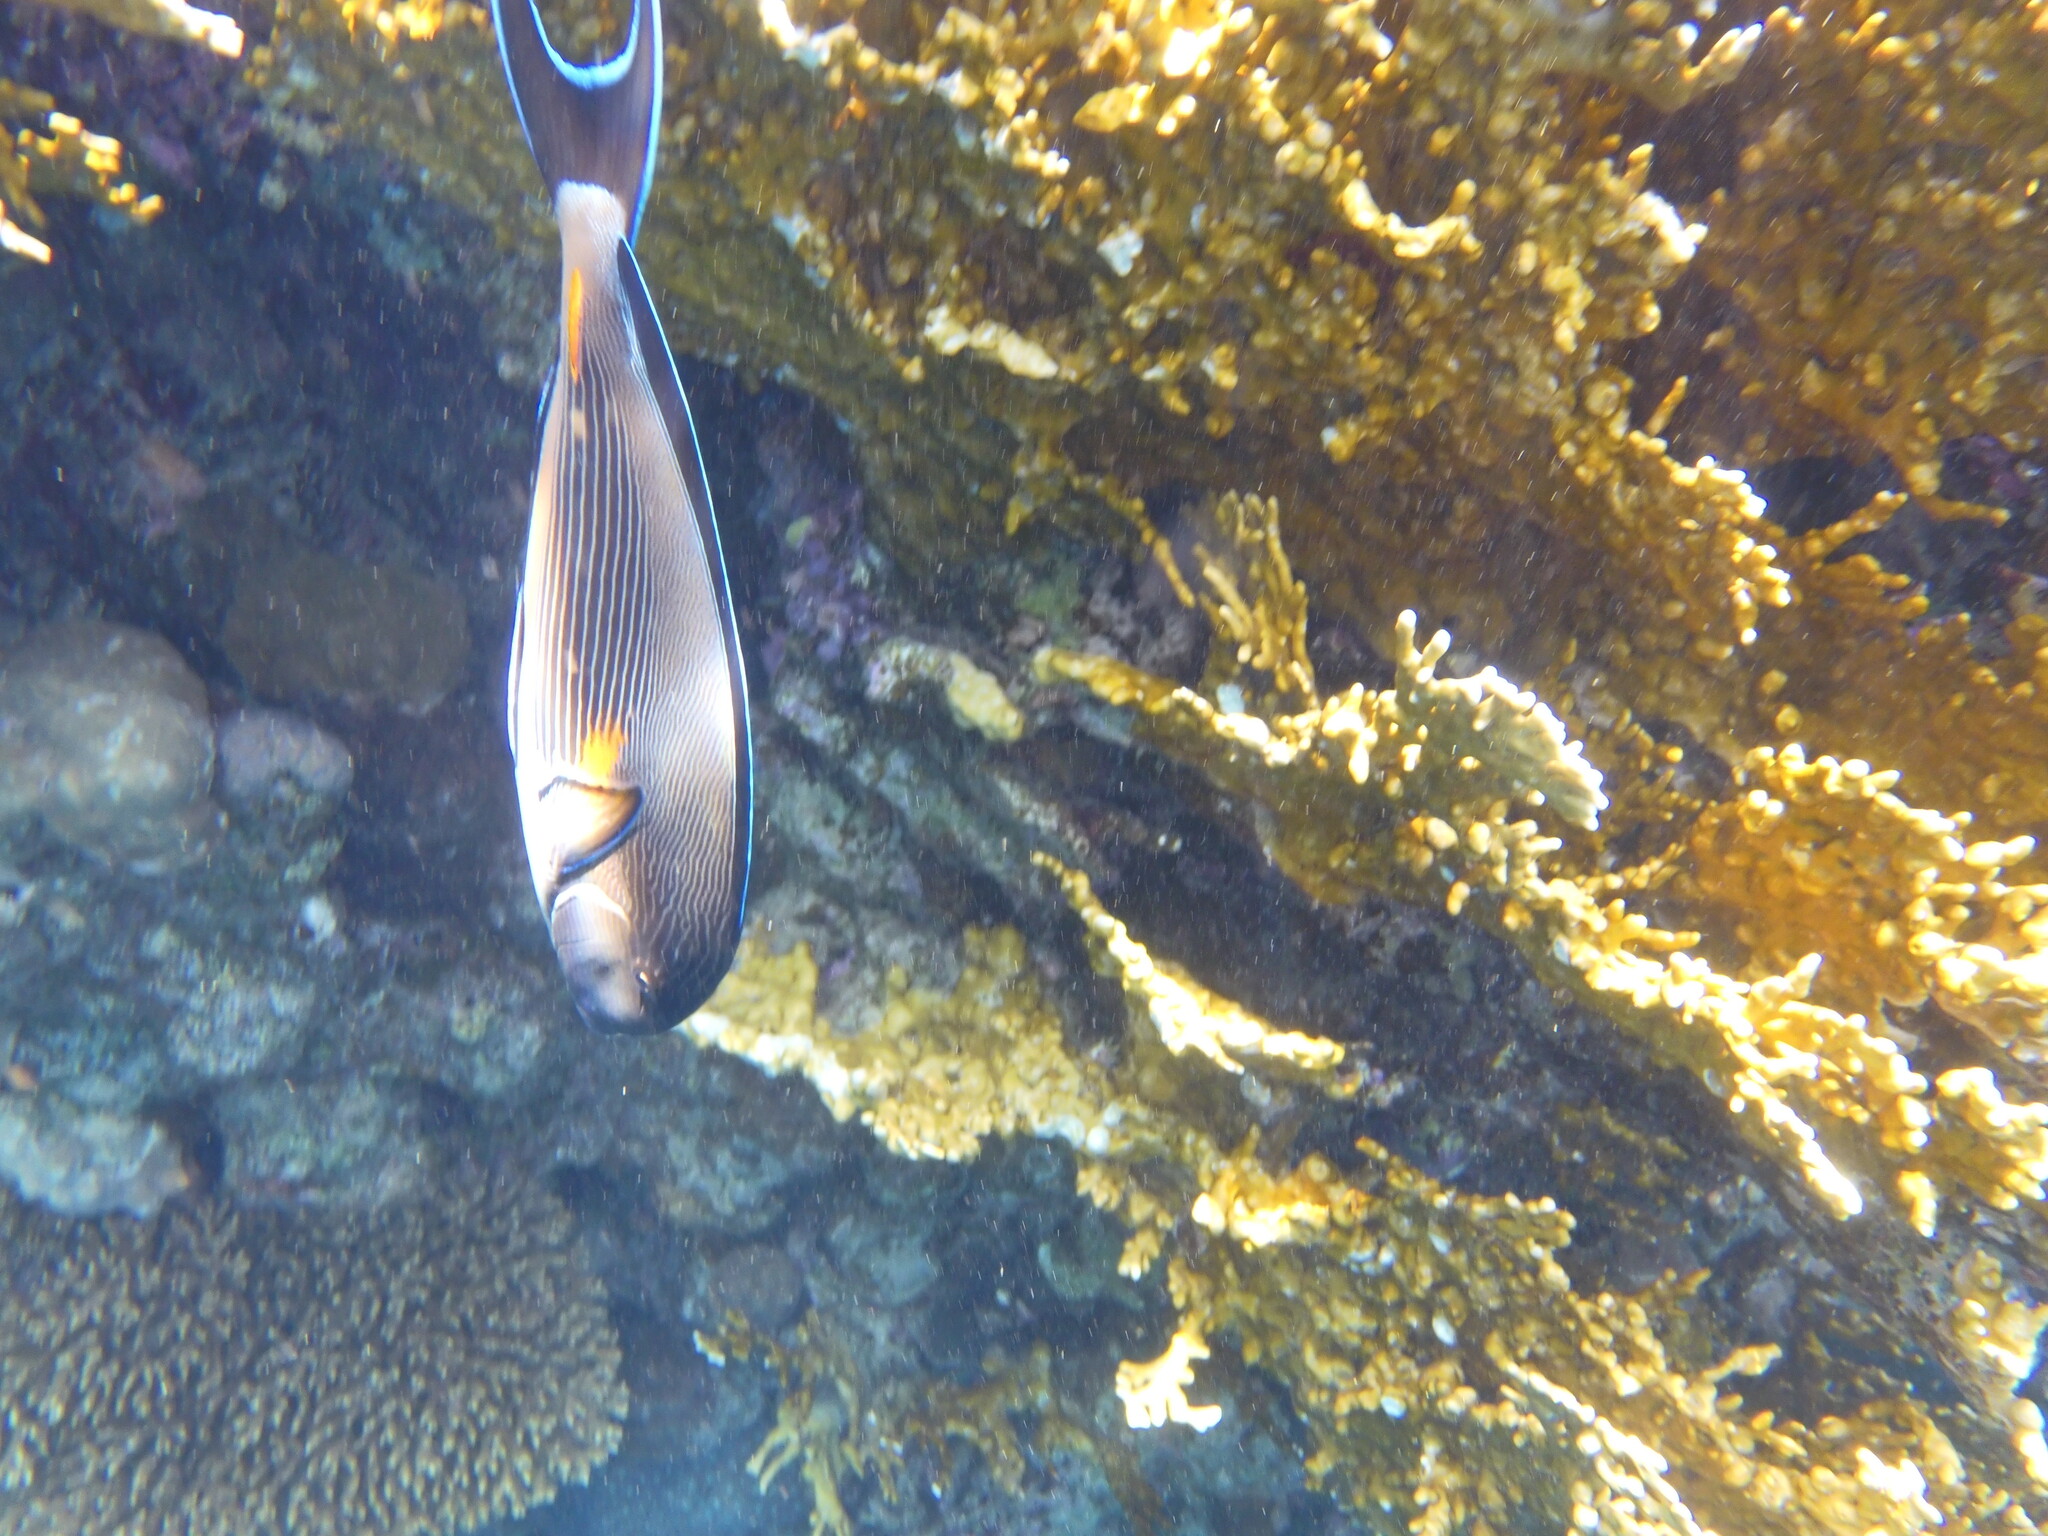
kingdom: Animalia
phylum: Chordata
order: Perciformes
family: Acanthuridae
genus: Acanthurus
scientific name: Acanthurus sohal
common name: Red sea surgeonfish
